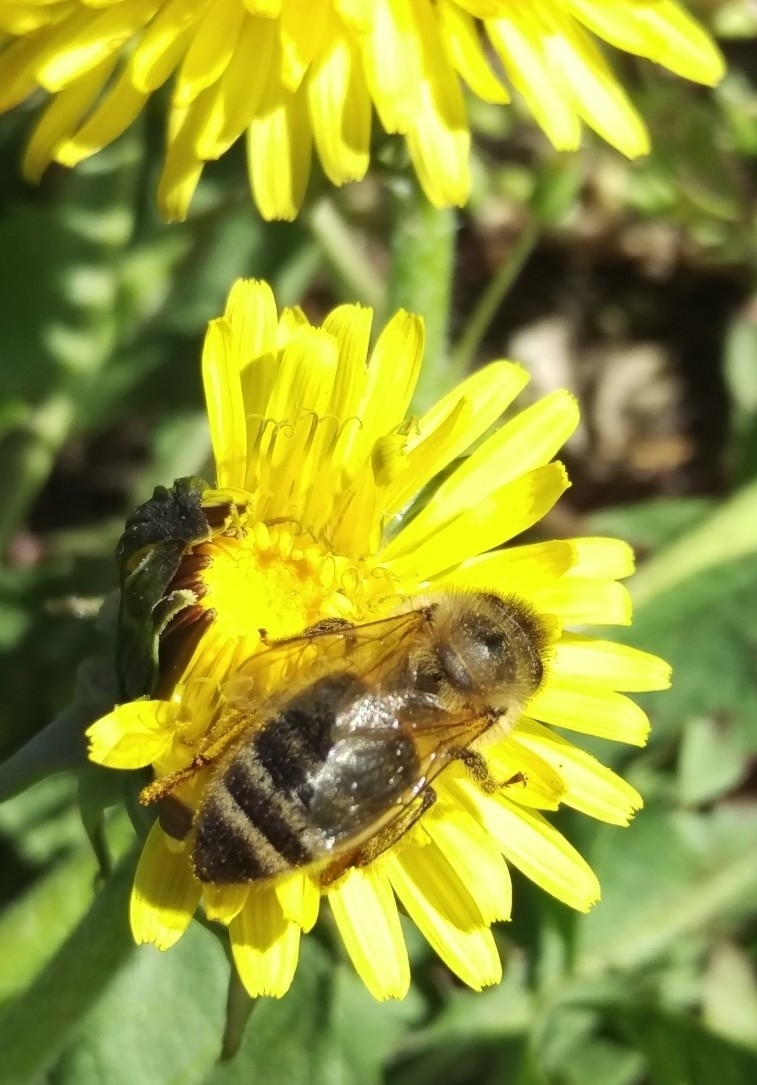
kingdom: Animalia
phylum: Arthropoda
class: Insecta
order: Hymenoptera
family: Apidae
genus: Apis
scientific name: Apis mellifera
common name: Honey bee
